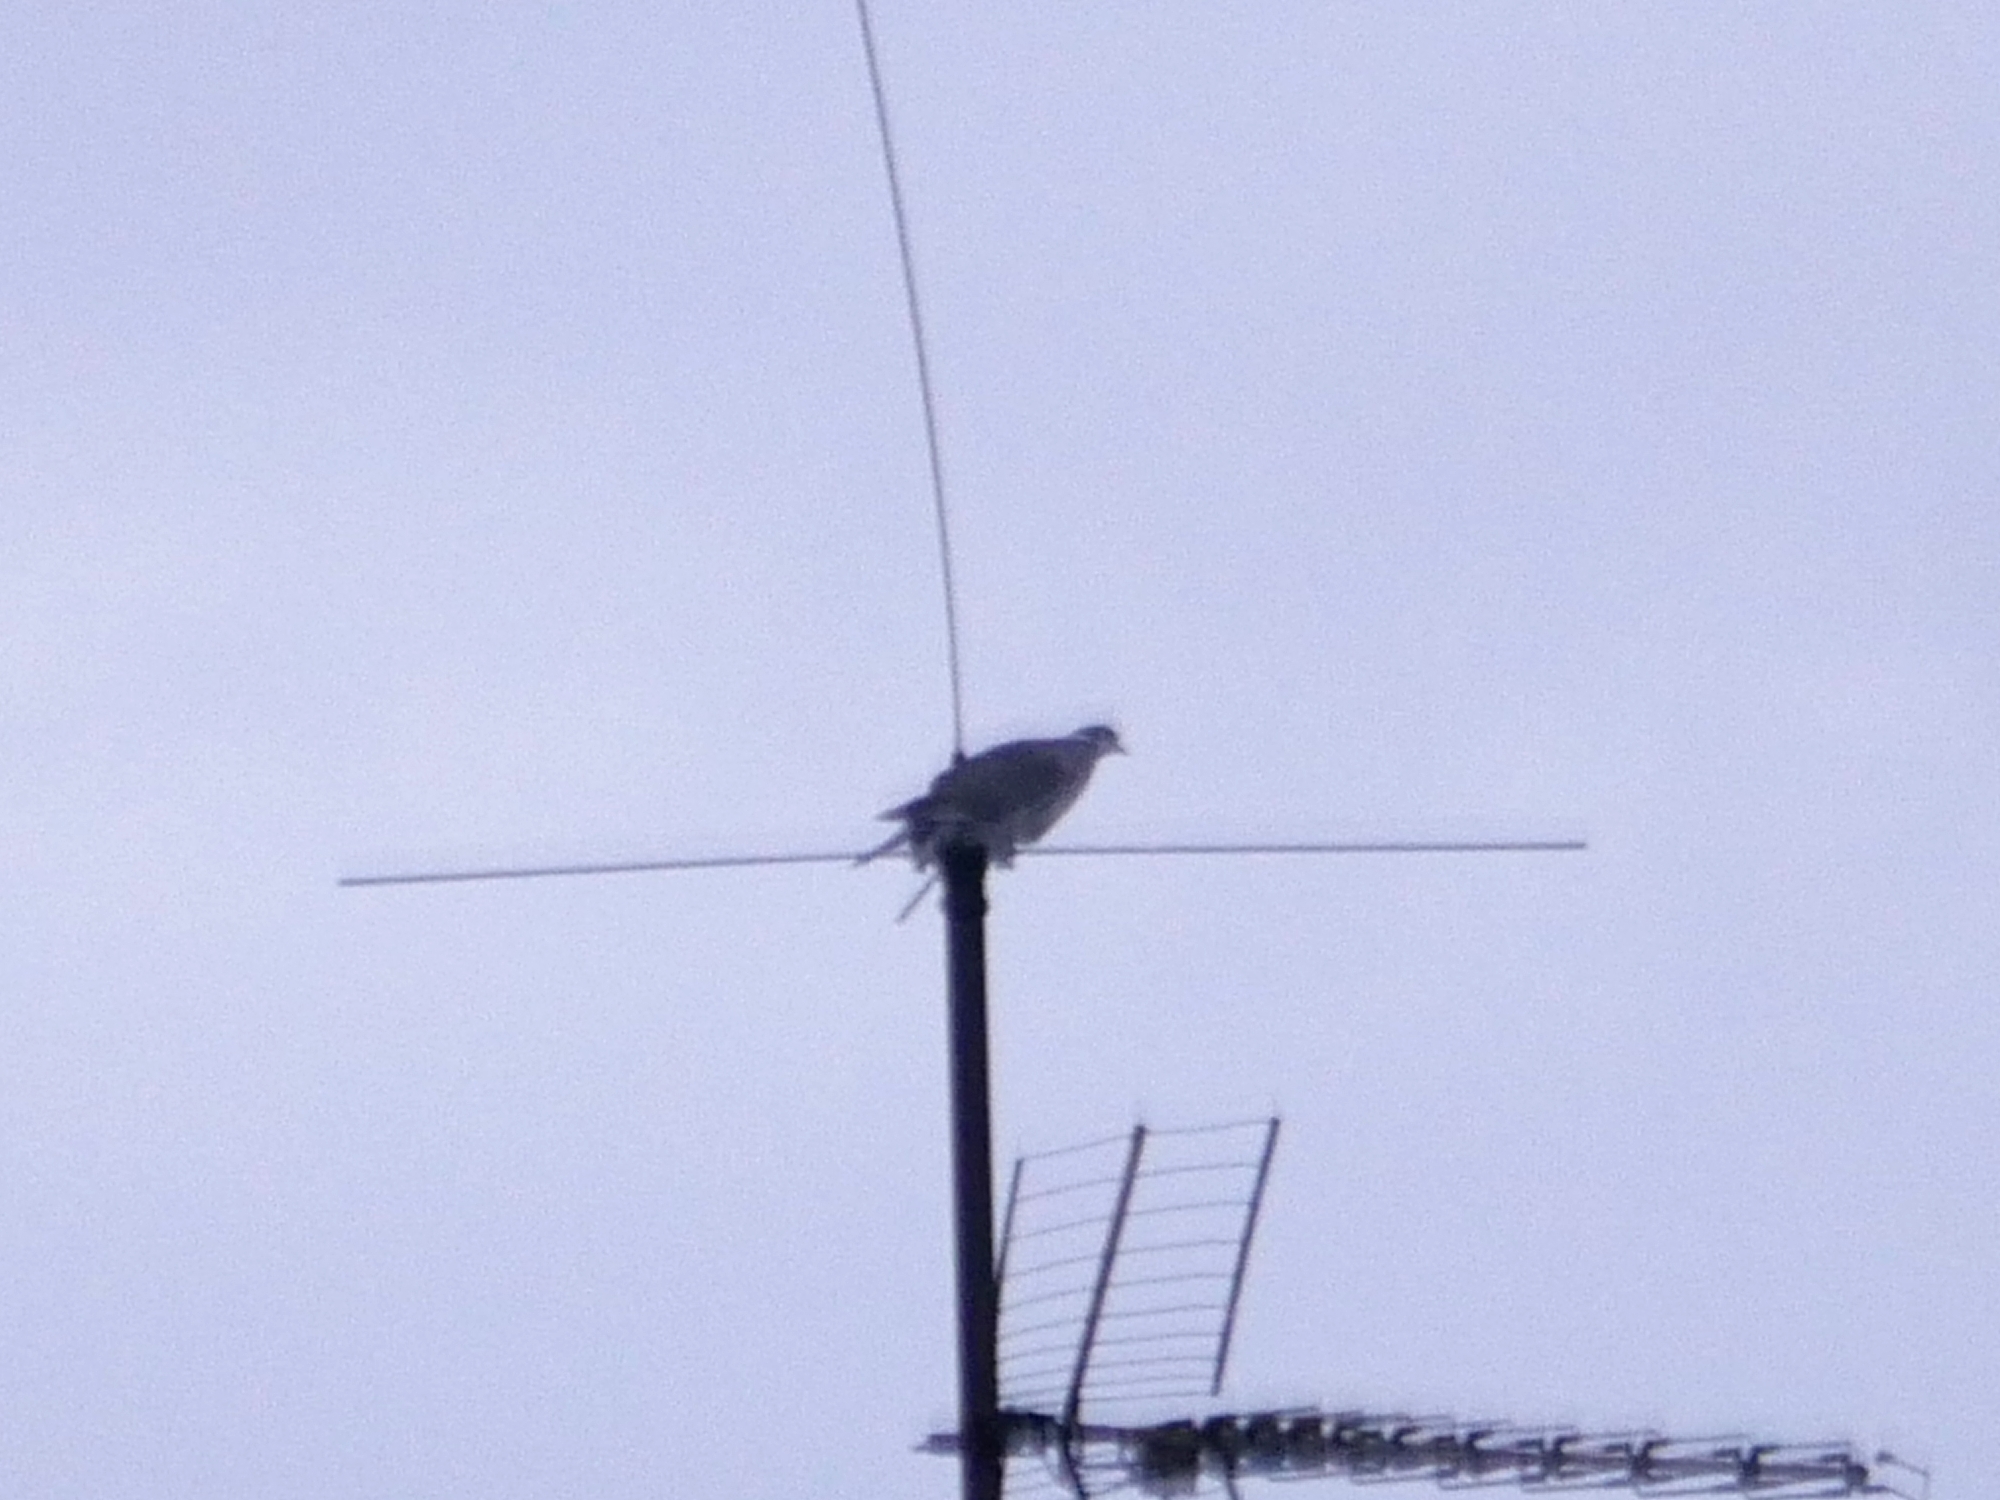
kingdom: Animalia
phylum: Chordata
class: Aves
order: Columbiformes
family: Columbidae
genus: Columba
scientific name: Columba palumbus
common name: Common wood pigeon
